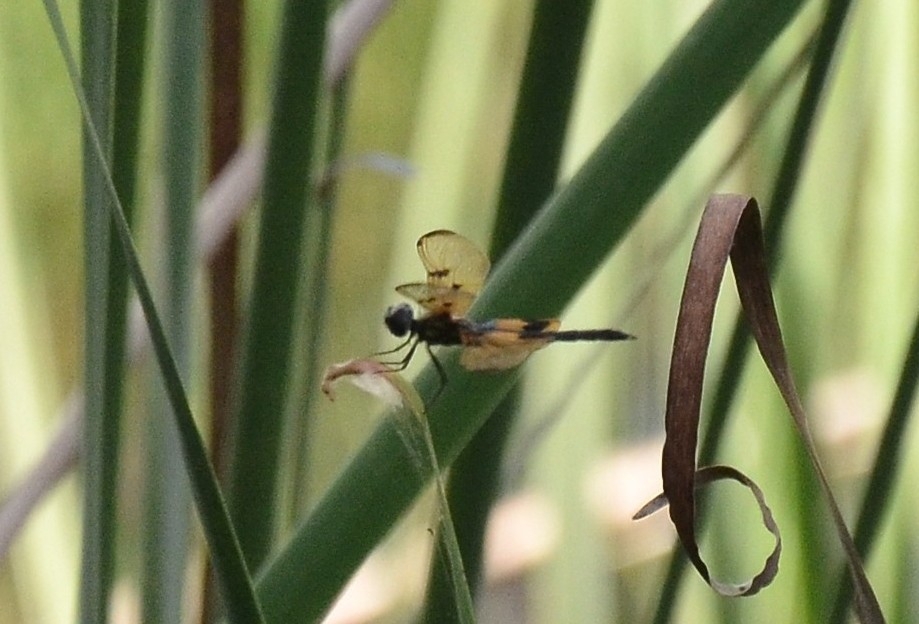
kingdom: Animalia
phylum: Arthropoda
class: Insecta
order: Odonata
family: Libellulidae
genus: Rhyothemis
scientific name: Rhyothemis variegata
